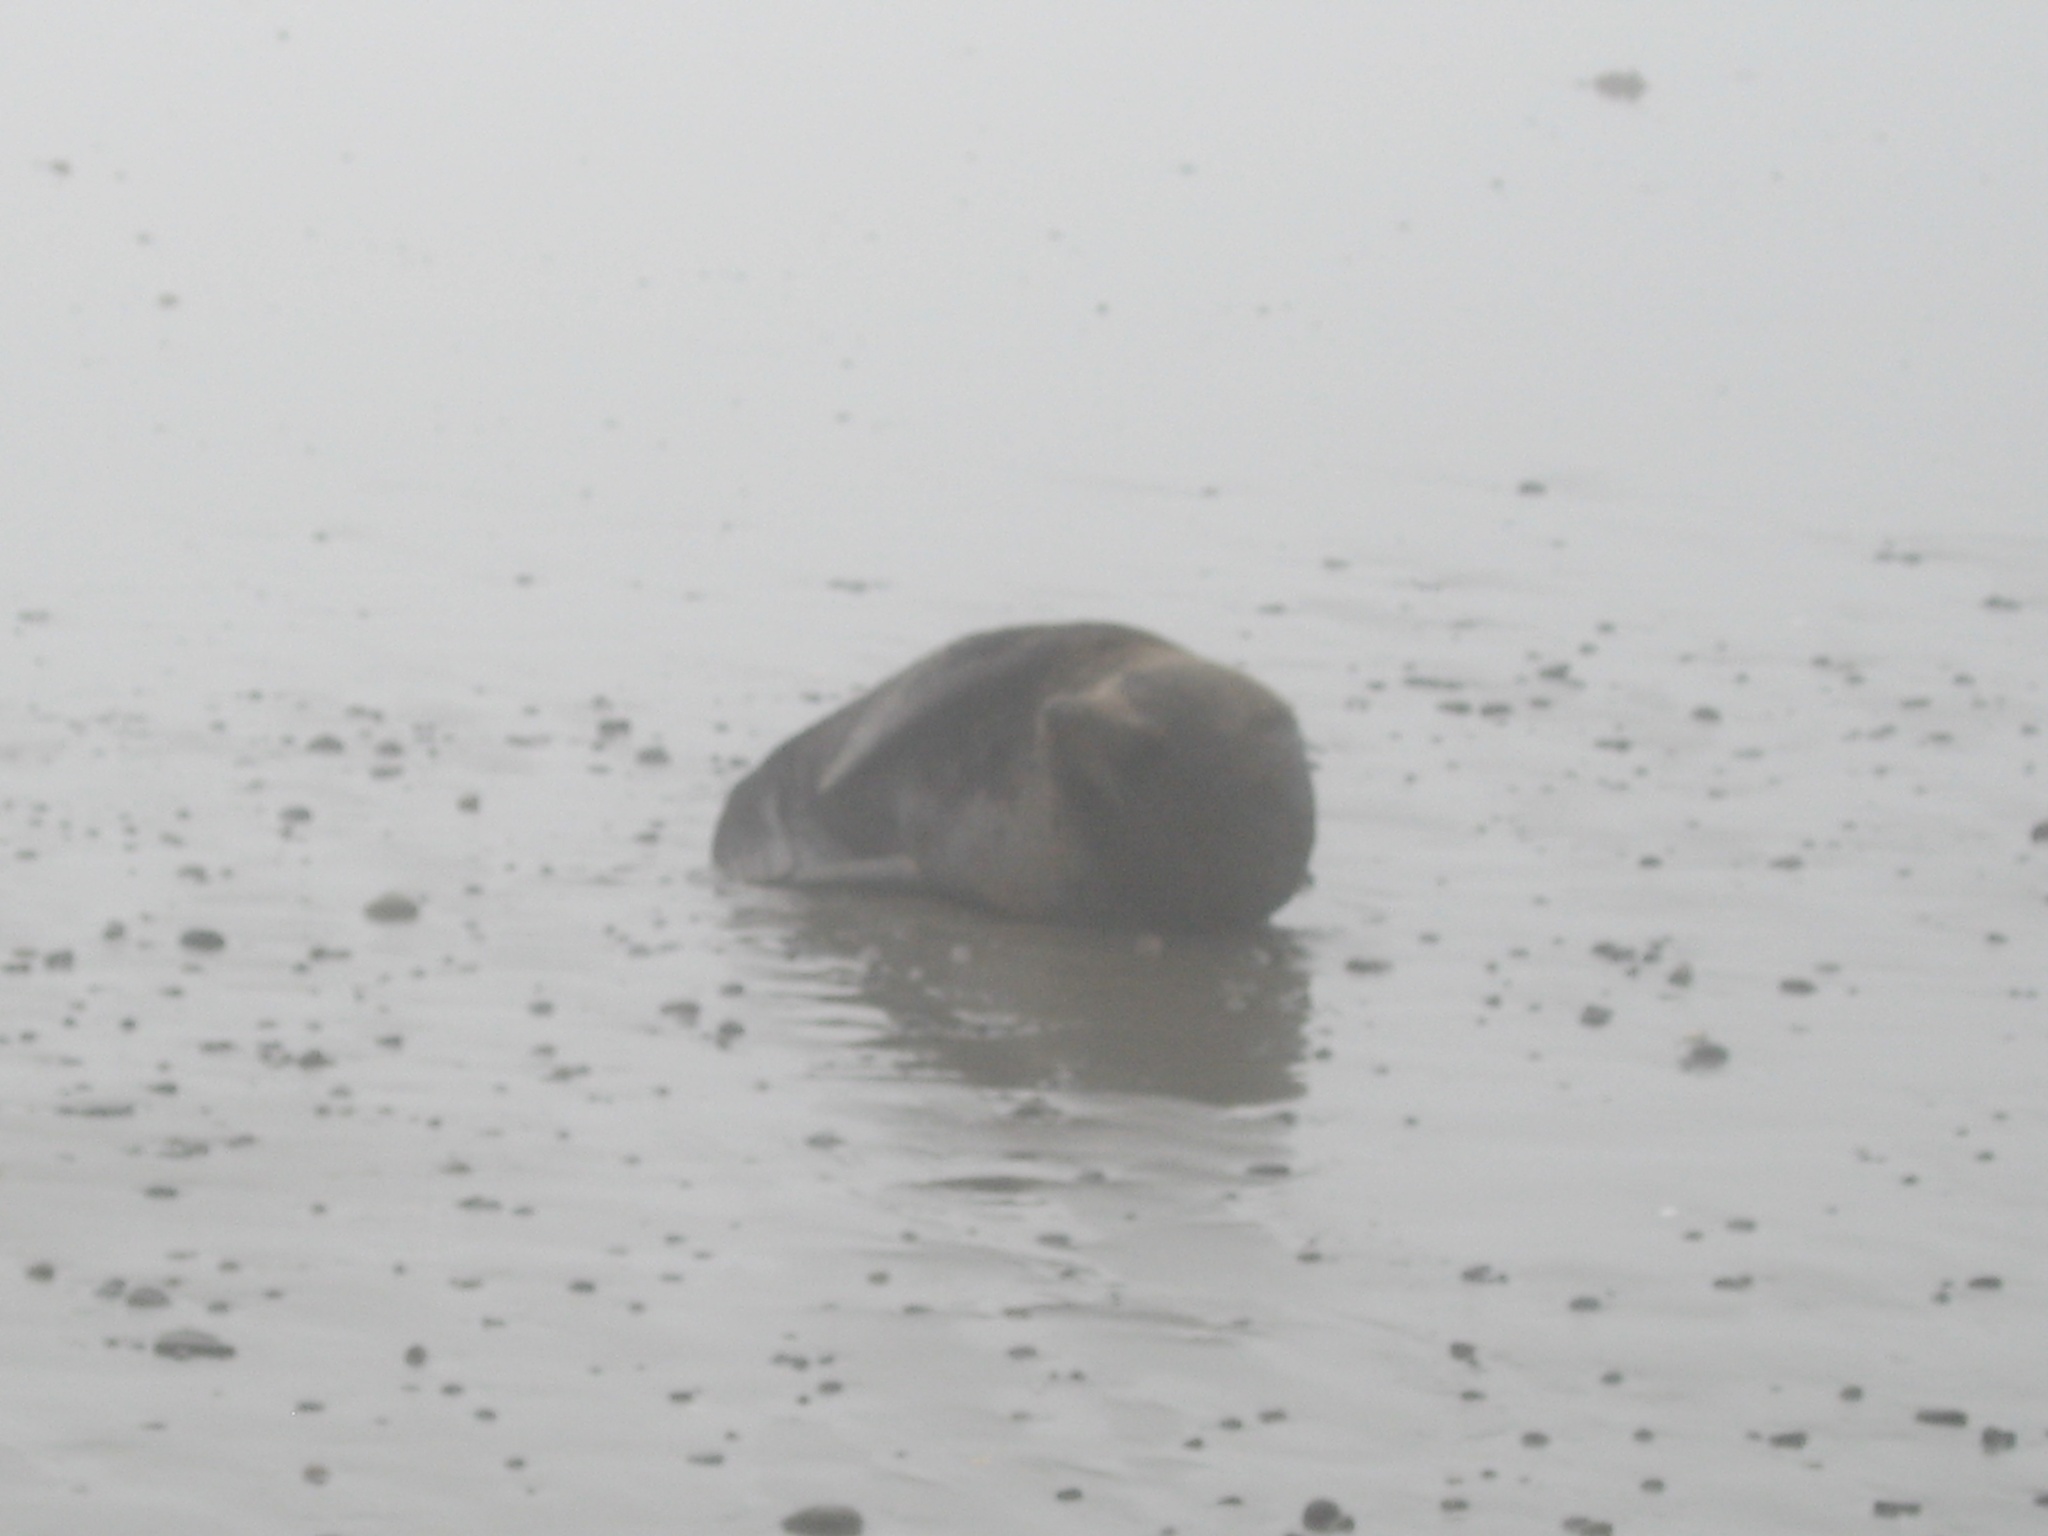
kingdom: Animalia
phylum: Chordata
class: Mammalia
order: Carnivora
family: Otariidae
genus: Arctocephalus
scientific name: Arctocephalus forsteri
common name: New zealand fur seal
